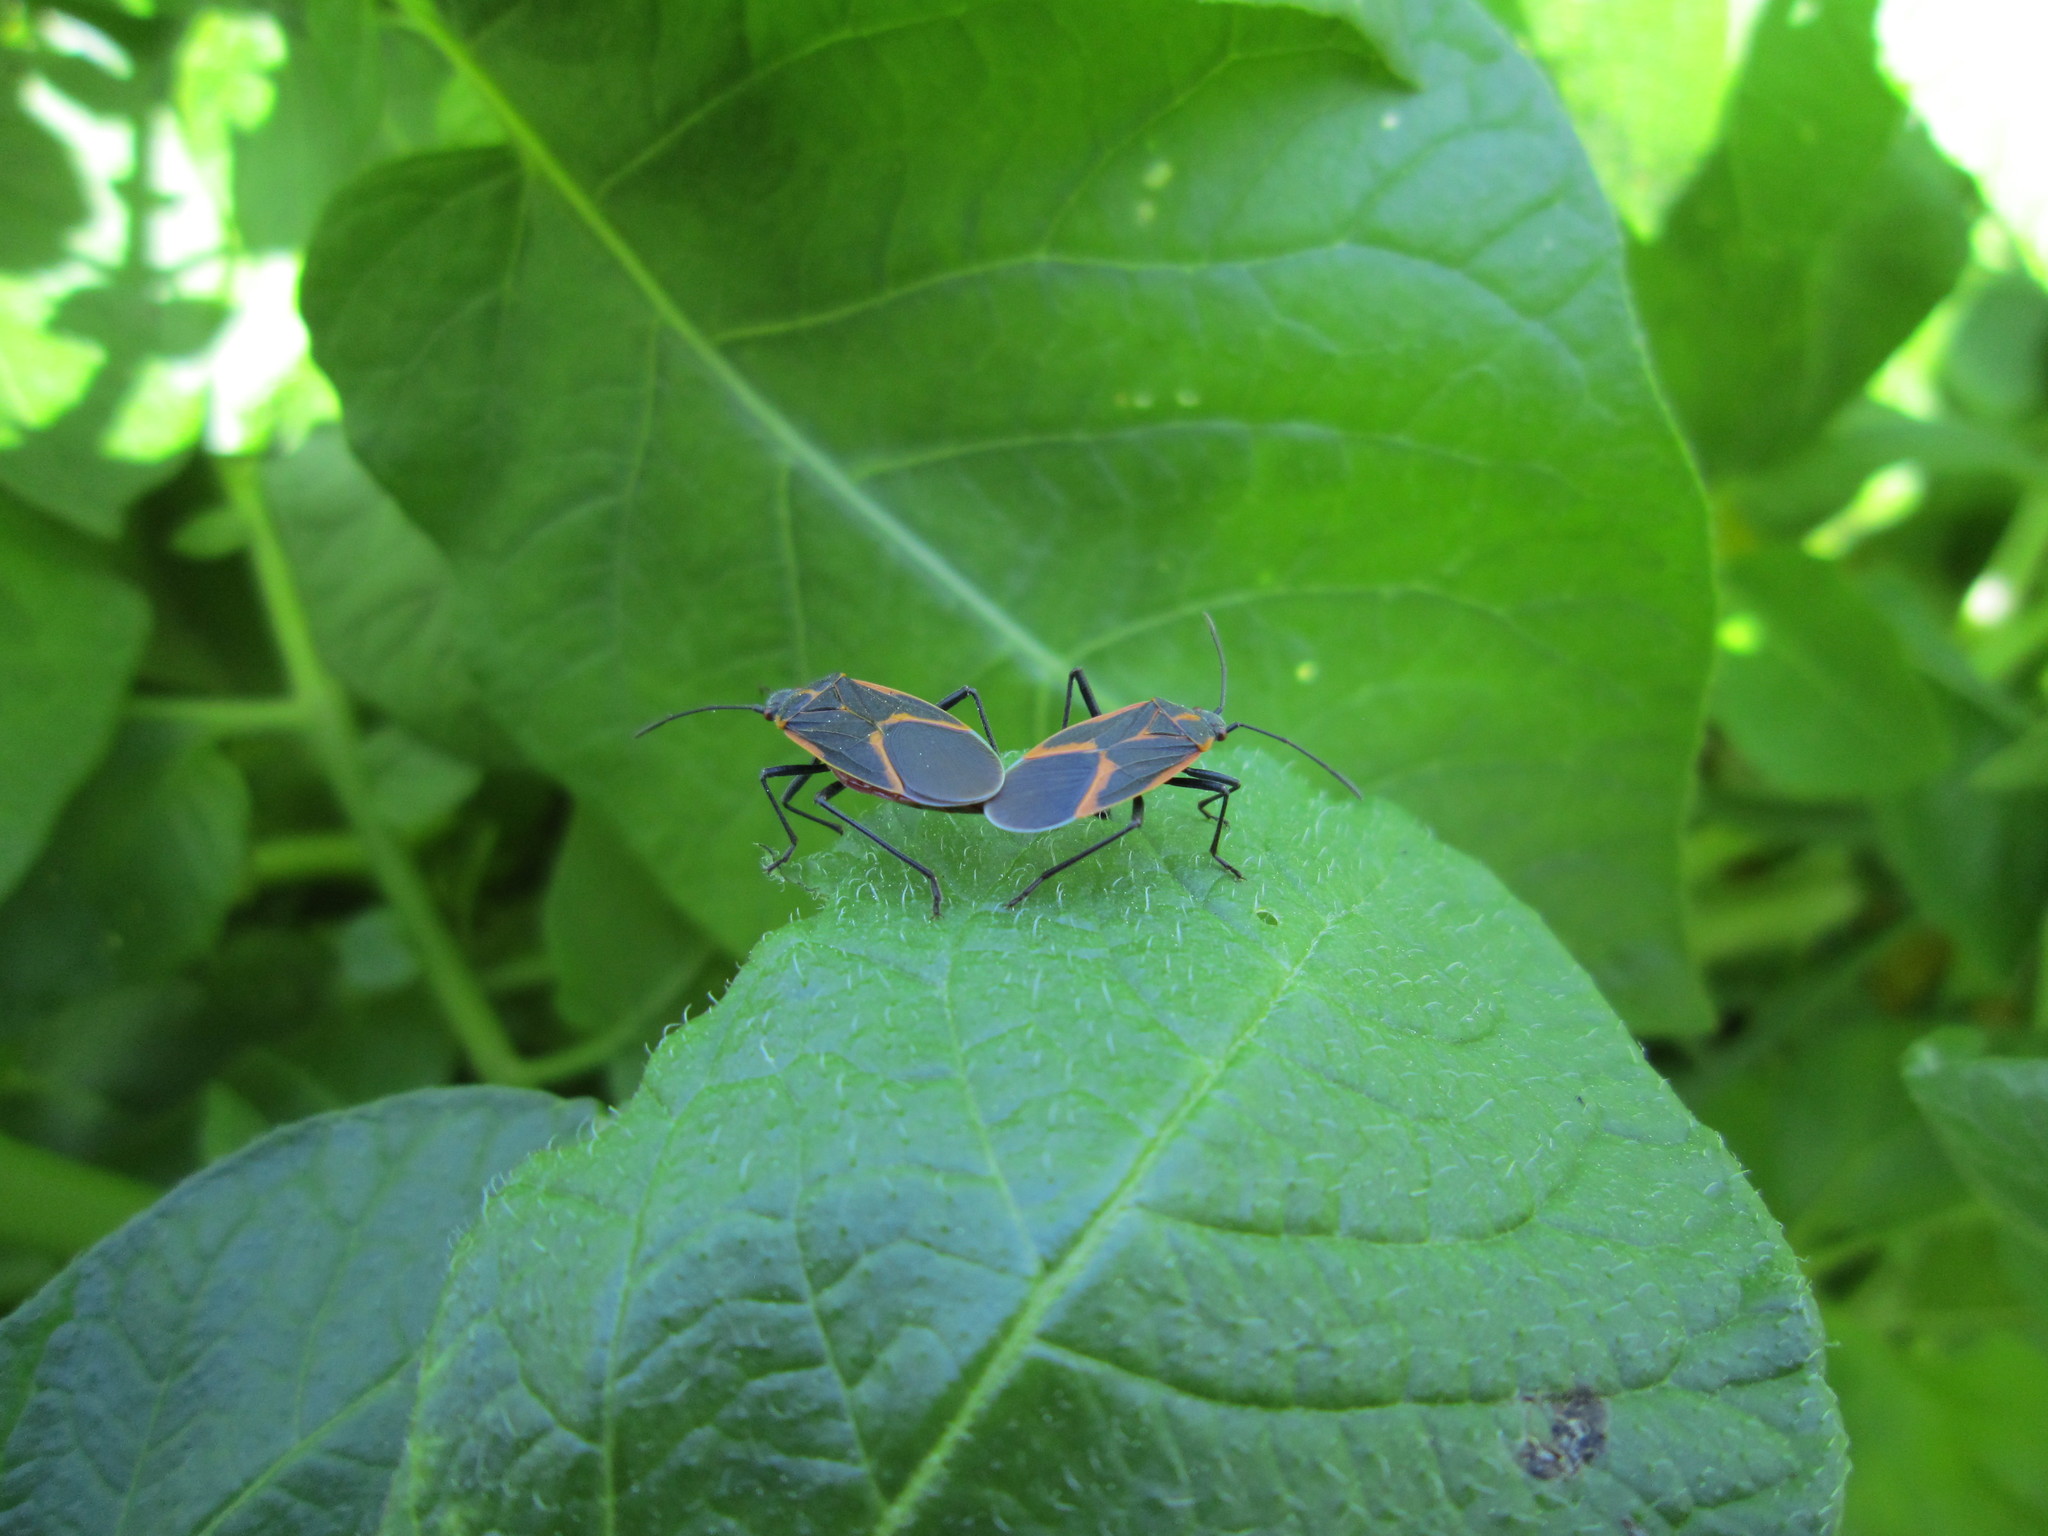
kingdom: Animalia
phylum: Arthropoda
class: Insecta
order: Hemiptera
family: Rhopalidae
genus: Boisea
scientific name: Boisea trivittata
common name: Boxelder bug
